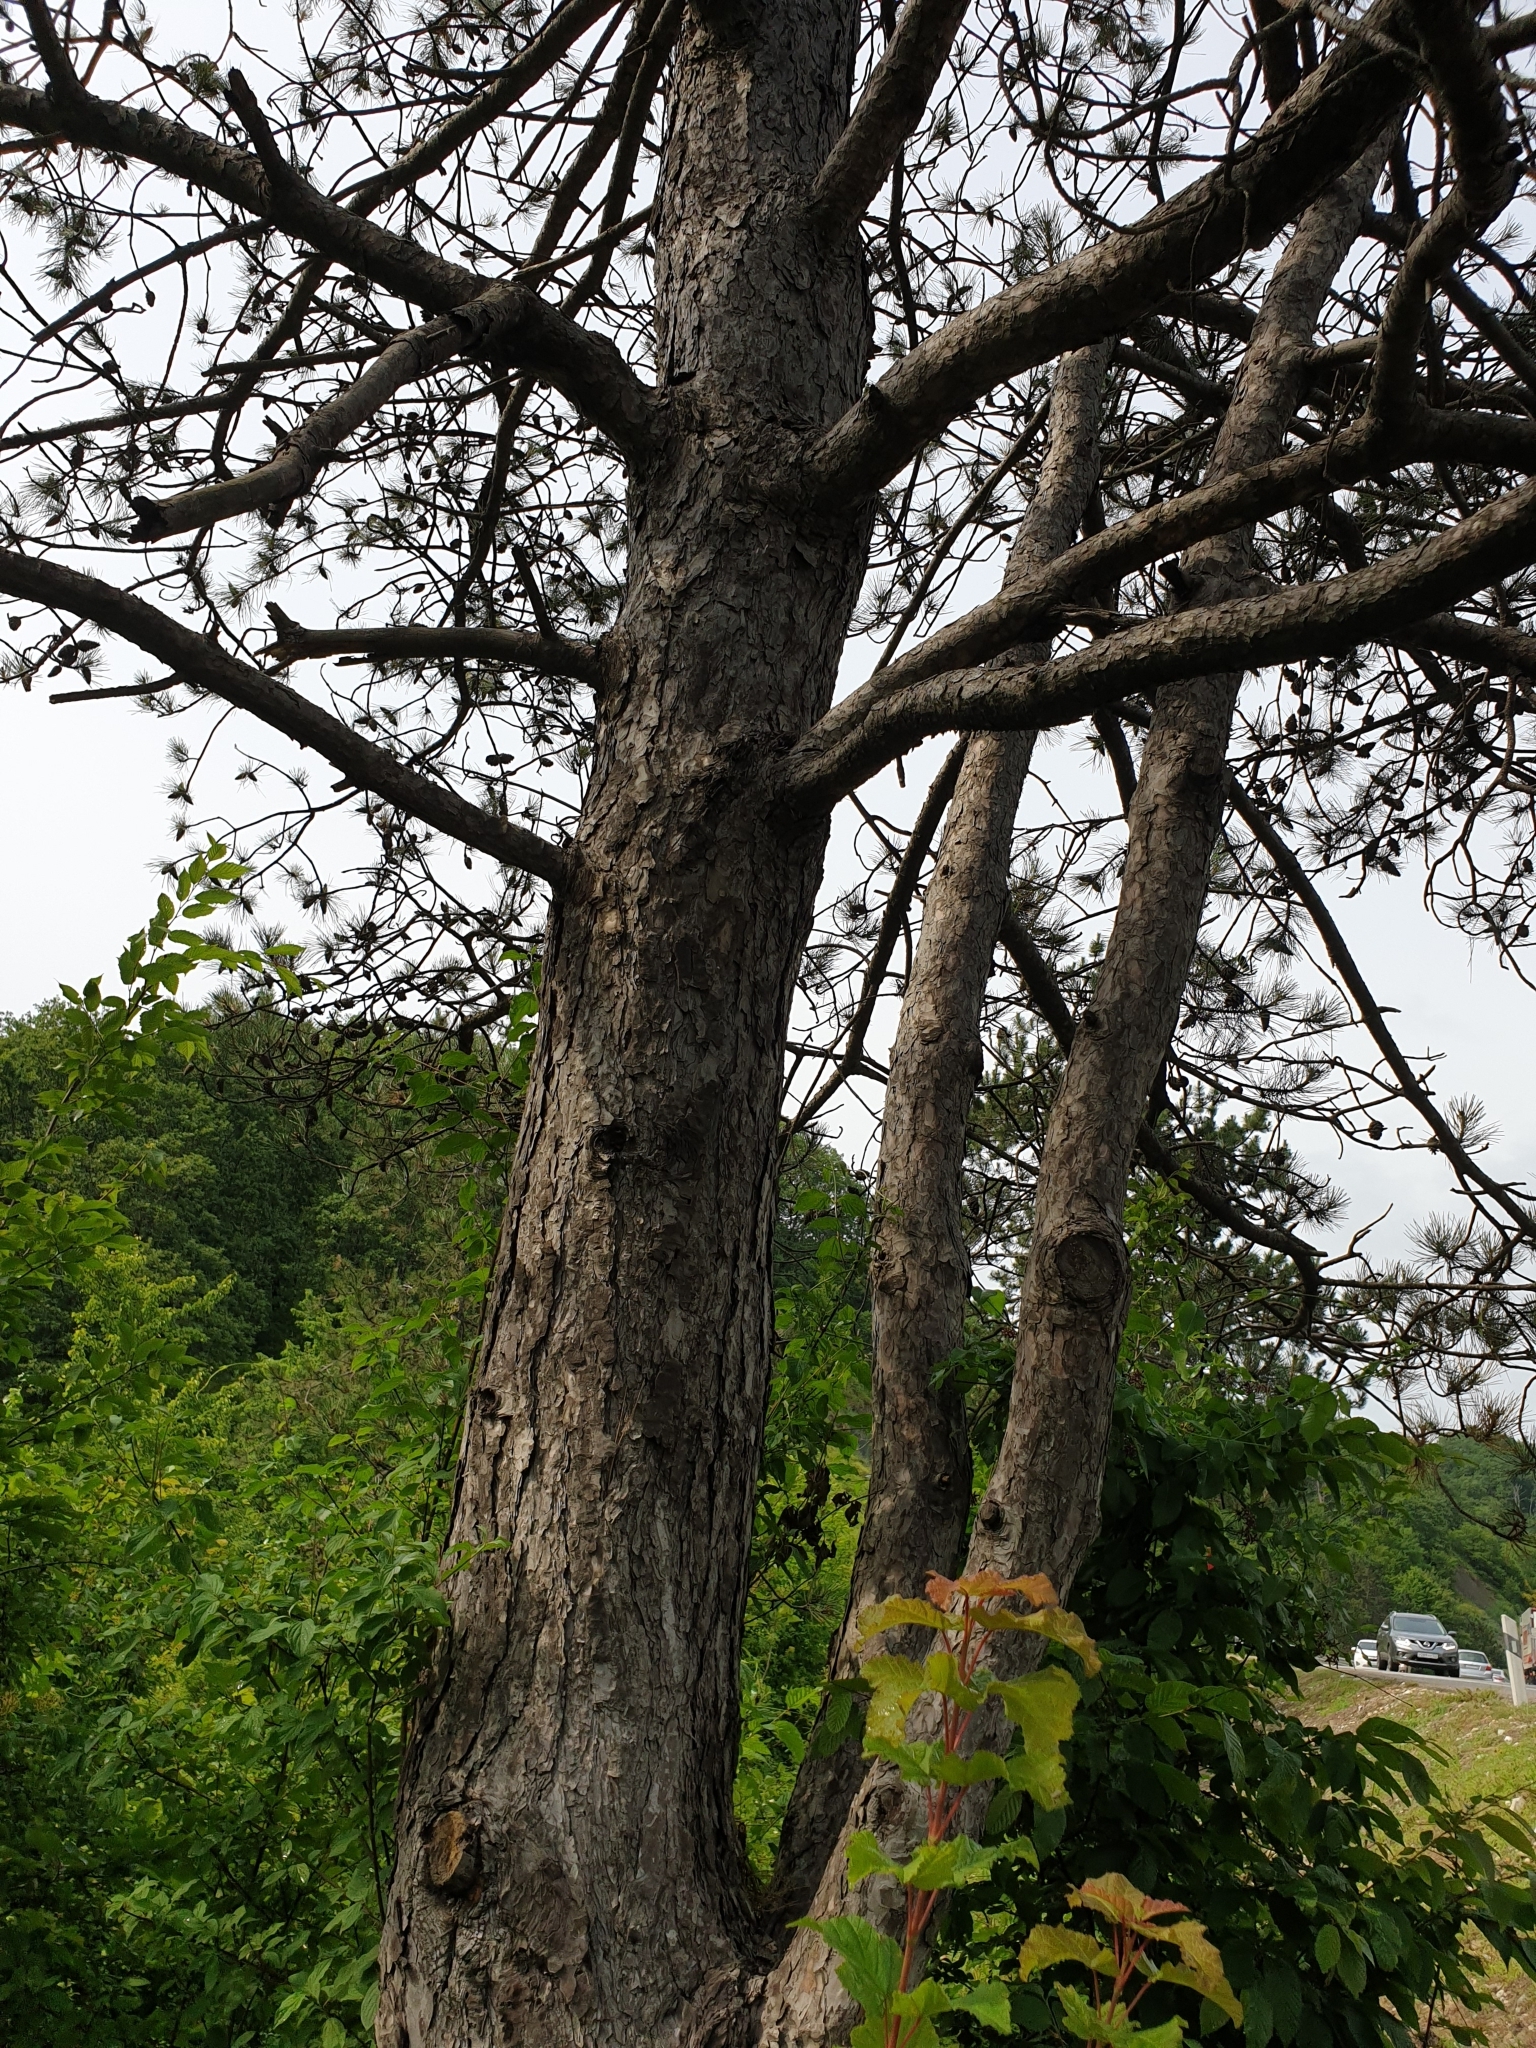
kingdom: Plantae
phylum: Tracheophyta
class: Pinopsida
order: Pinales
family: Pinaceae
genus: Pinus
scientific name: Pinus nigra
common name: Austrian pine
